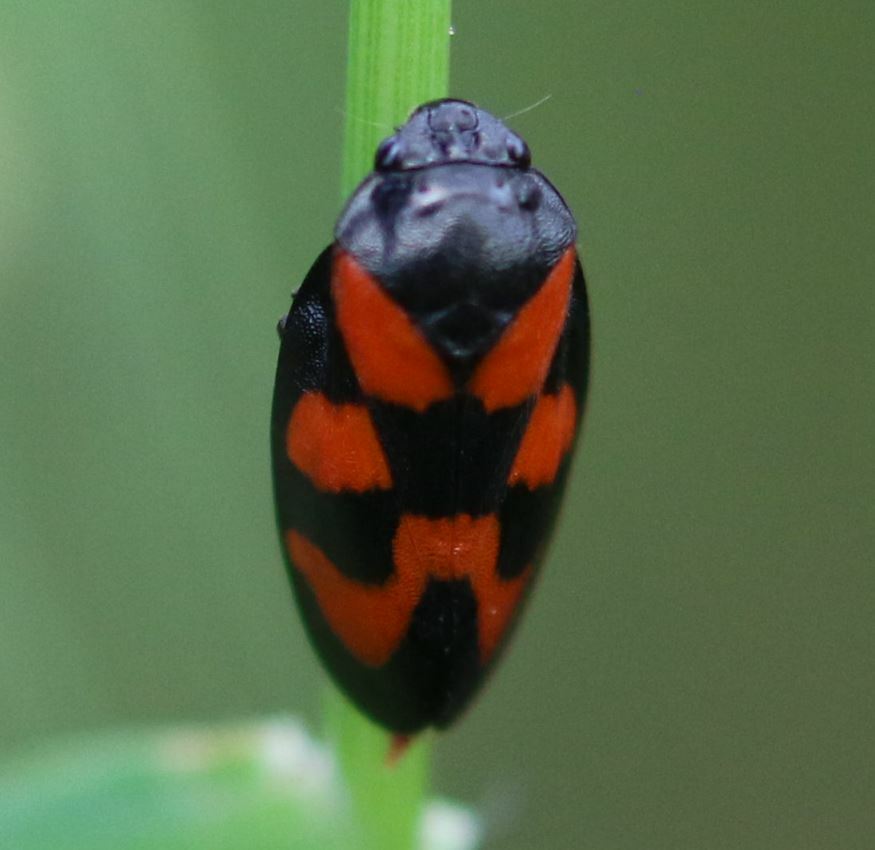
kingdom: Animalia
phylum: Arthropoda
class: Insecta
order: Hemiptera
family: Cercopidae
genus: Cercopis
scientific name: Cercopis vulnerata
